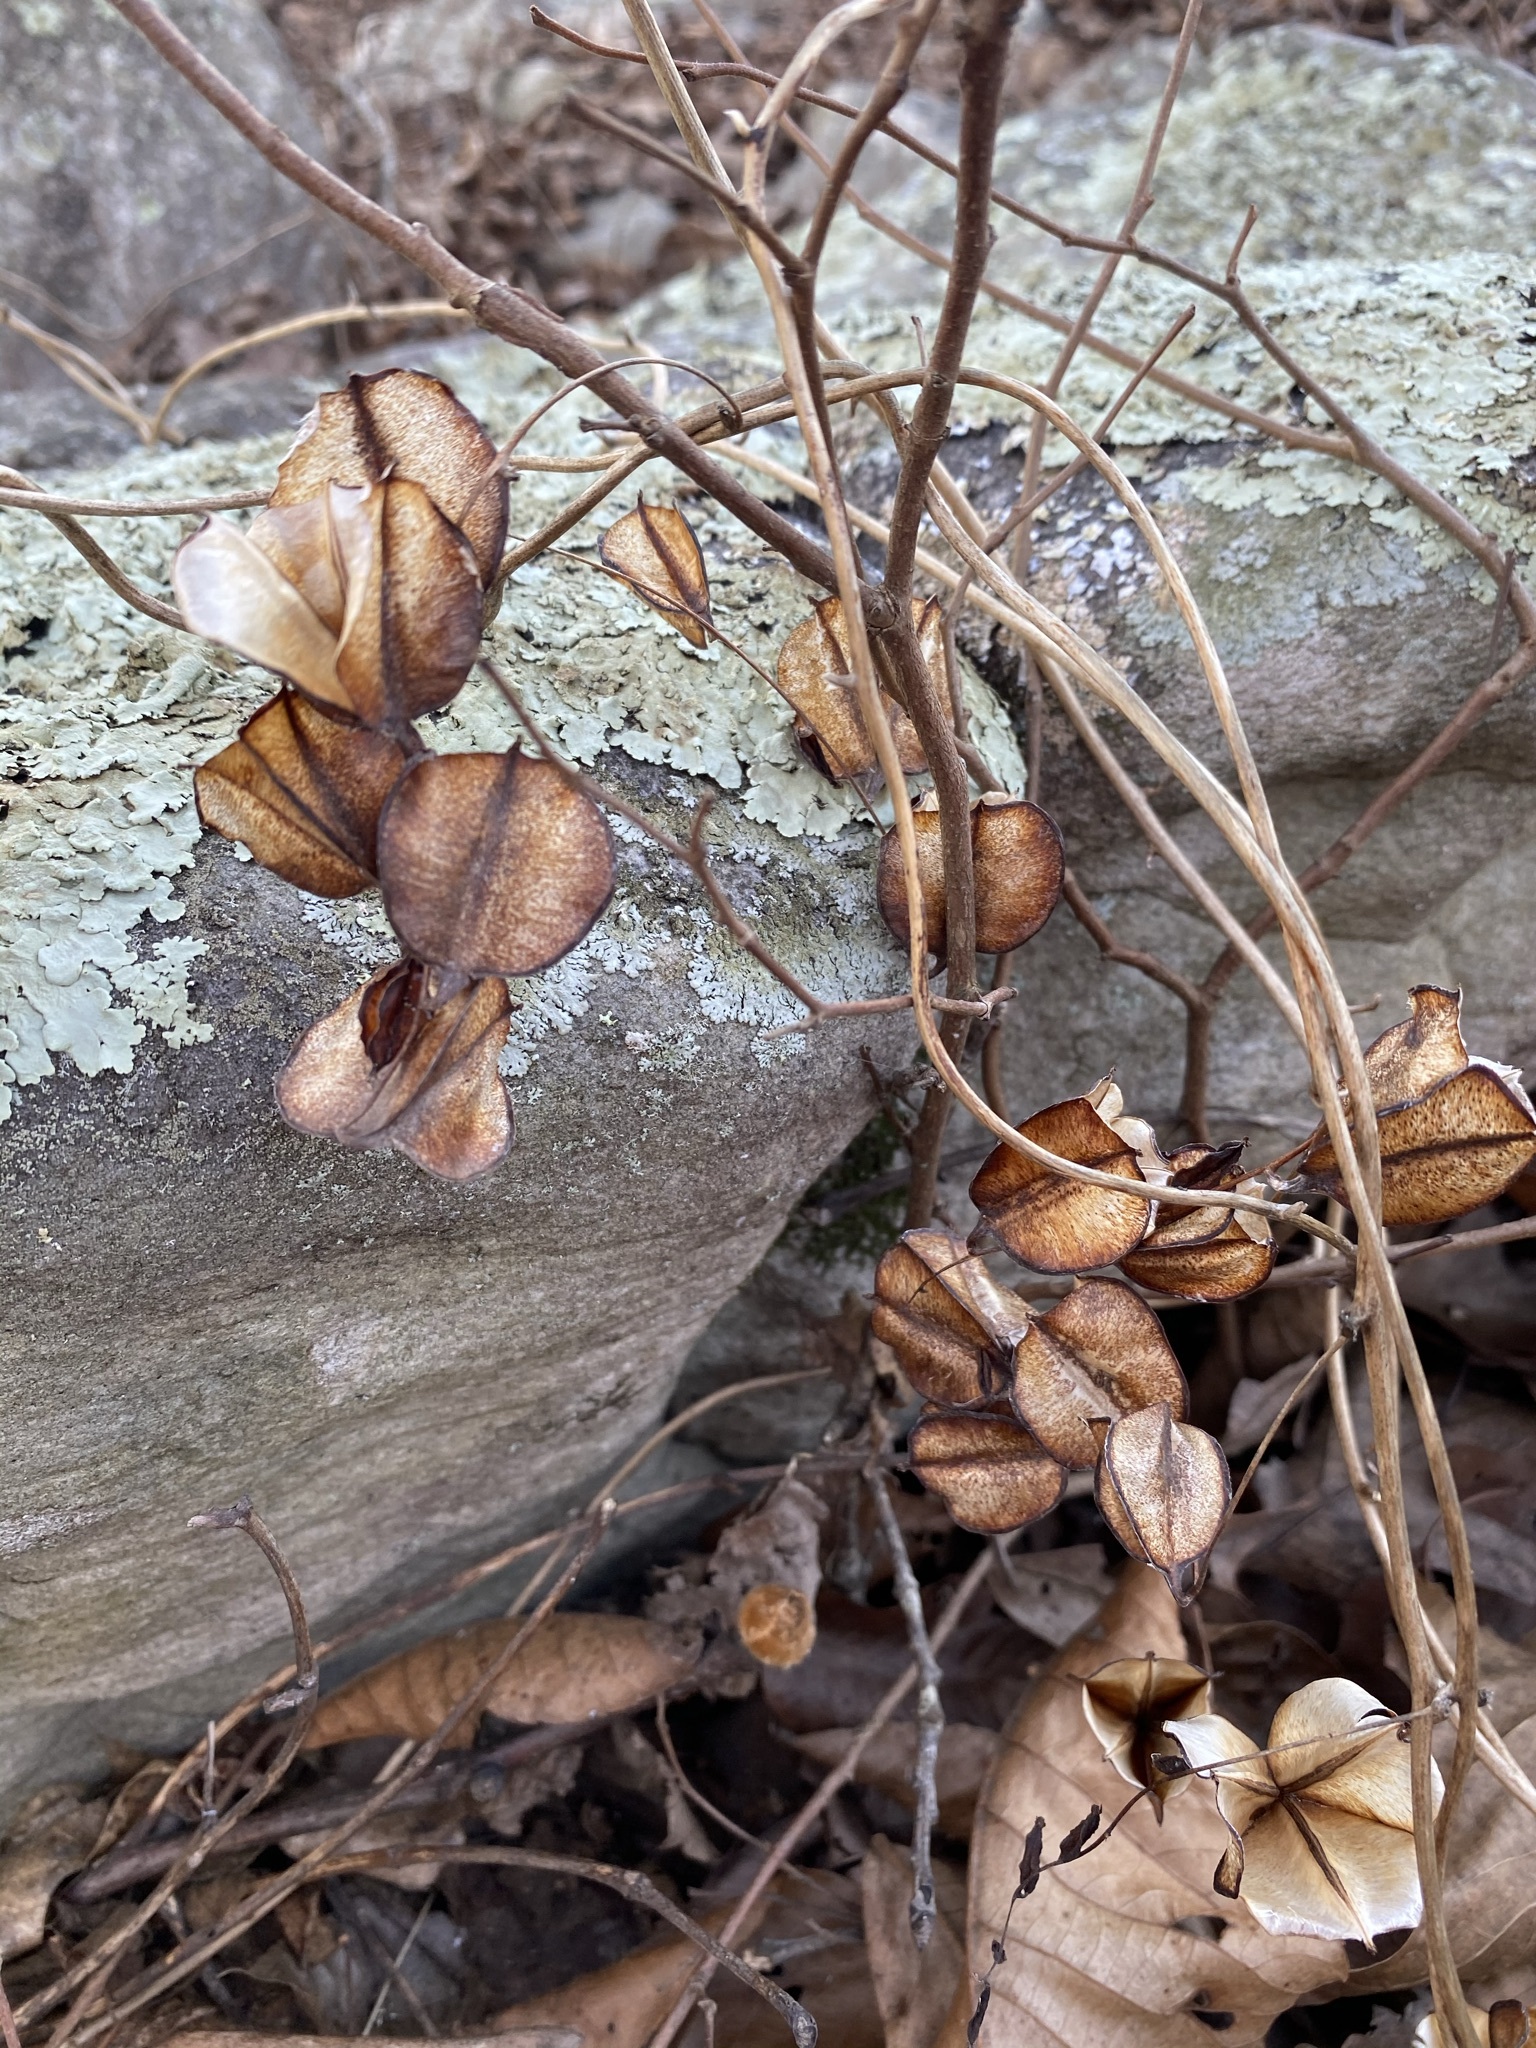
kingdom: Plantae
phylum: Tracheophyta
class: Liliopsida
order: Dioscoreales
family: Dioscoreaceae
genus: Dioscorea
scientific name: Dioscorea villosa
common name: Wild yam
